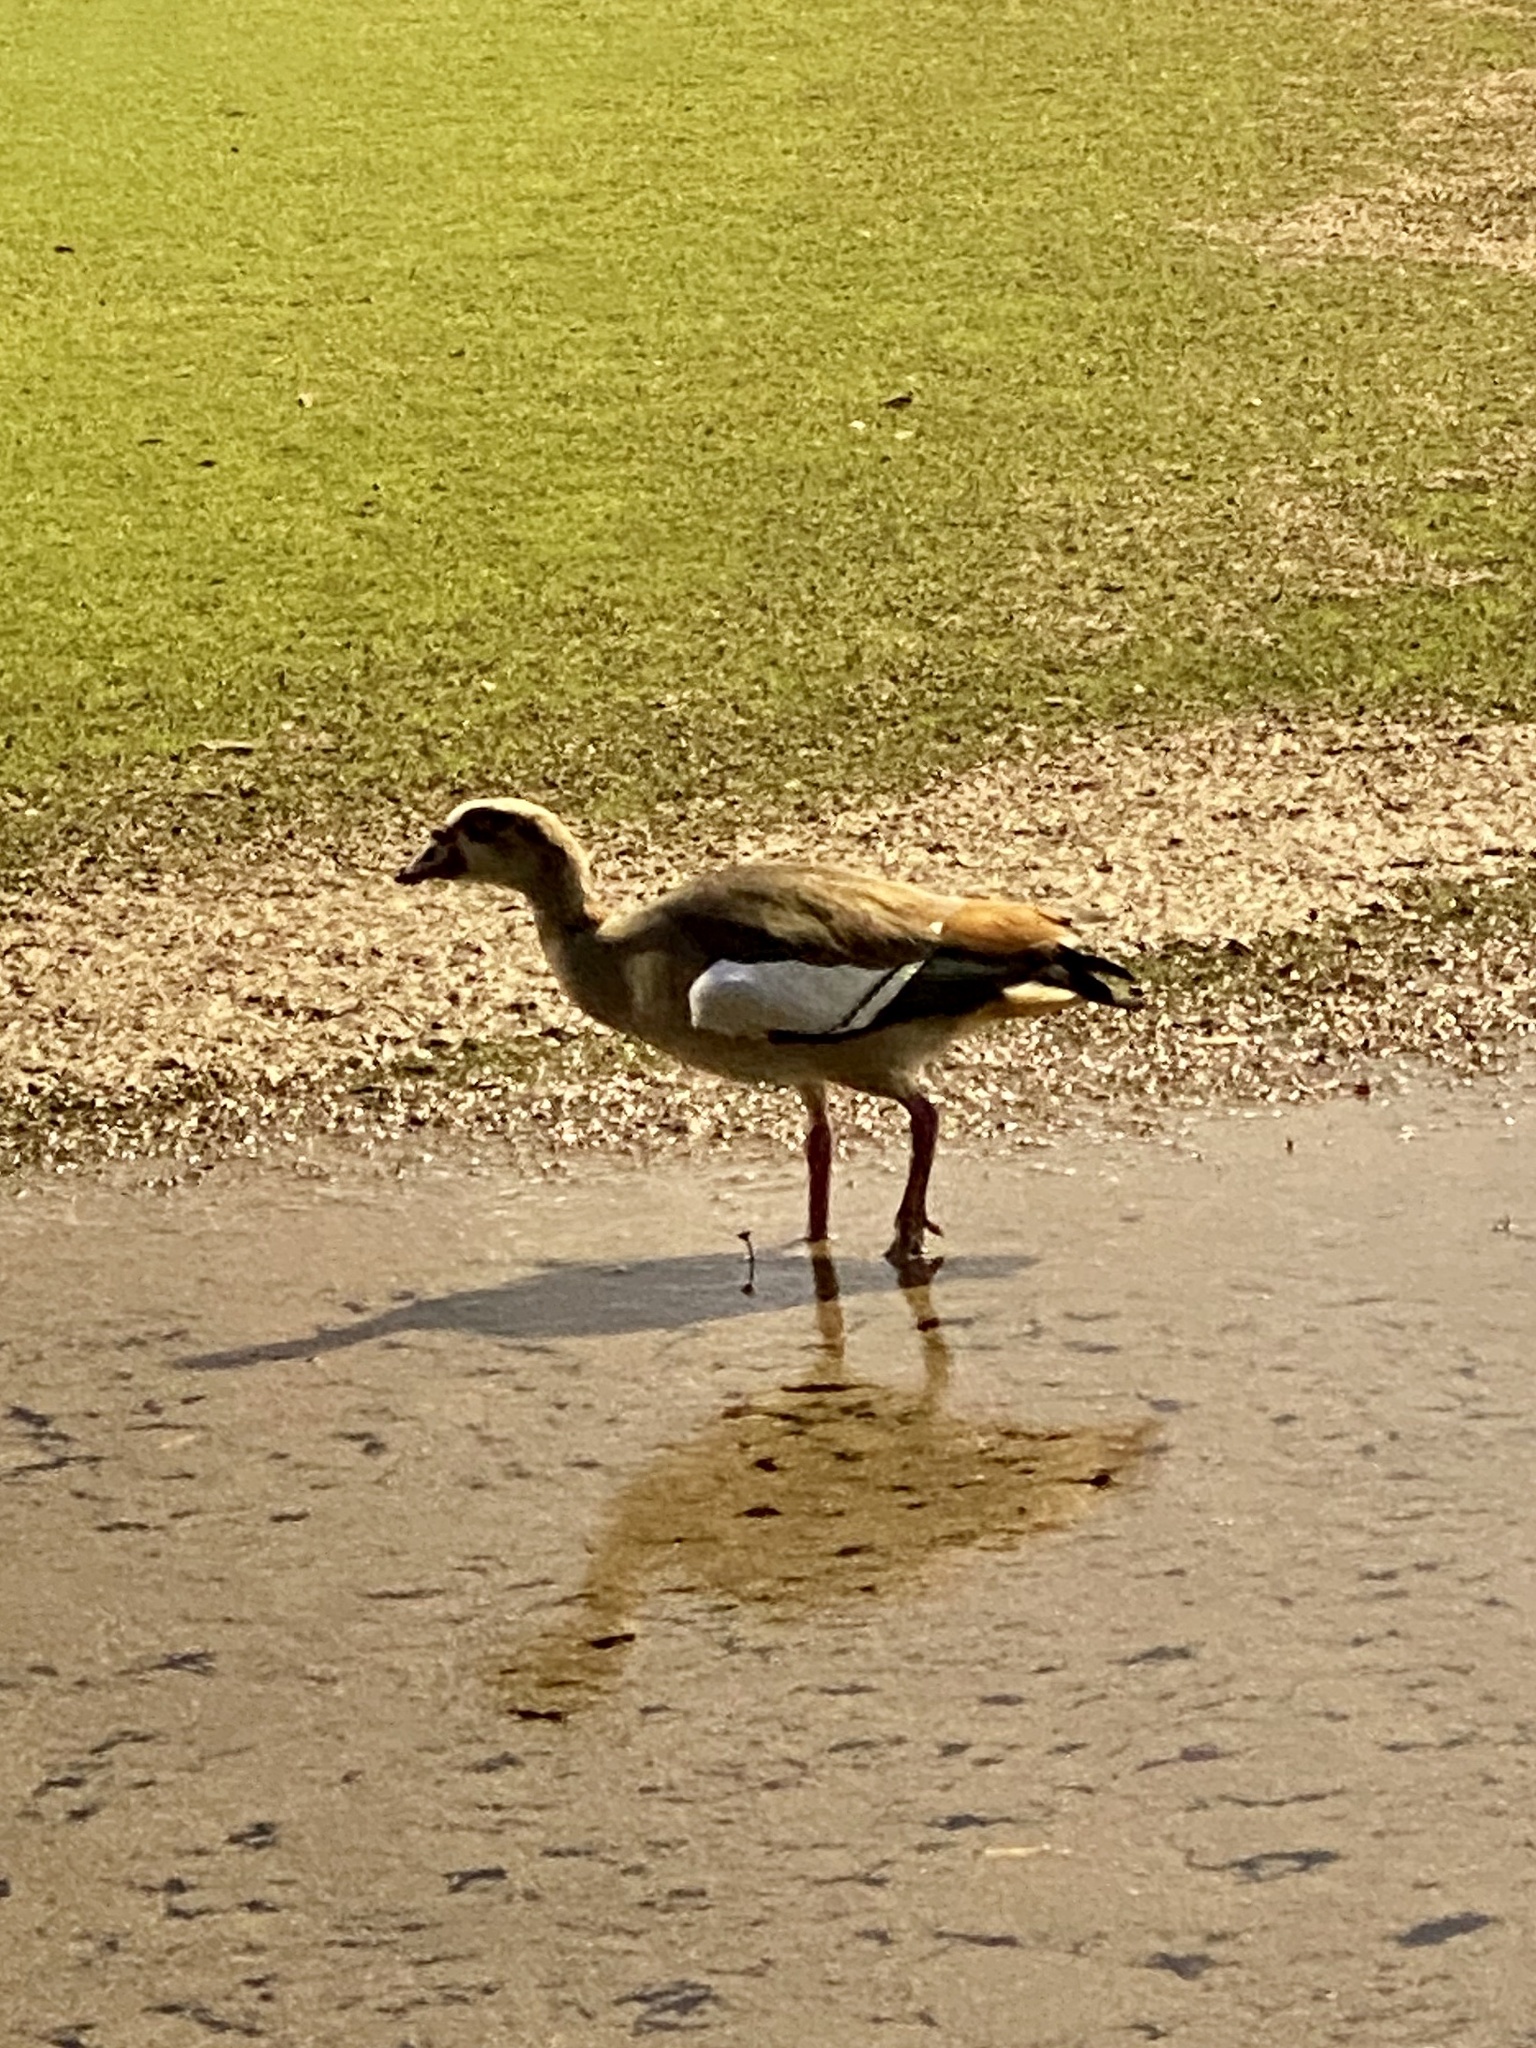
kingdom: Animalia
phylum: Chordata
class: Aves
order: Anseriformes
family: Anatidae
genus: Alopochen
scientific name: Alopochen aegyptiaca
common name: Egyptian goose
